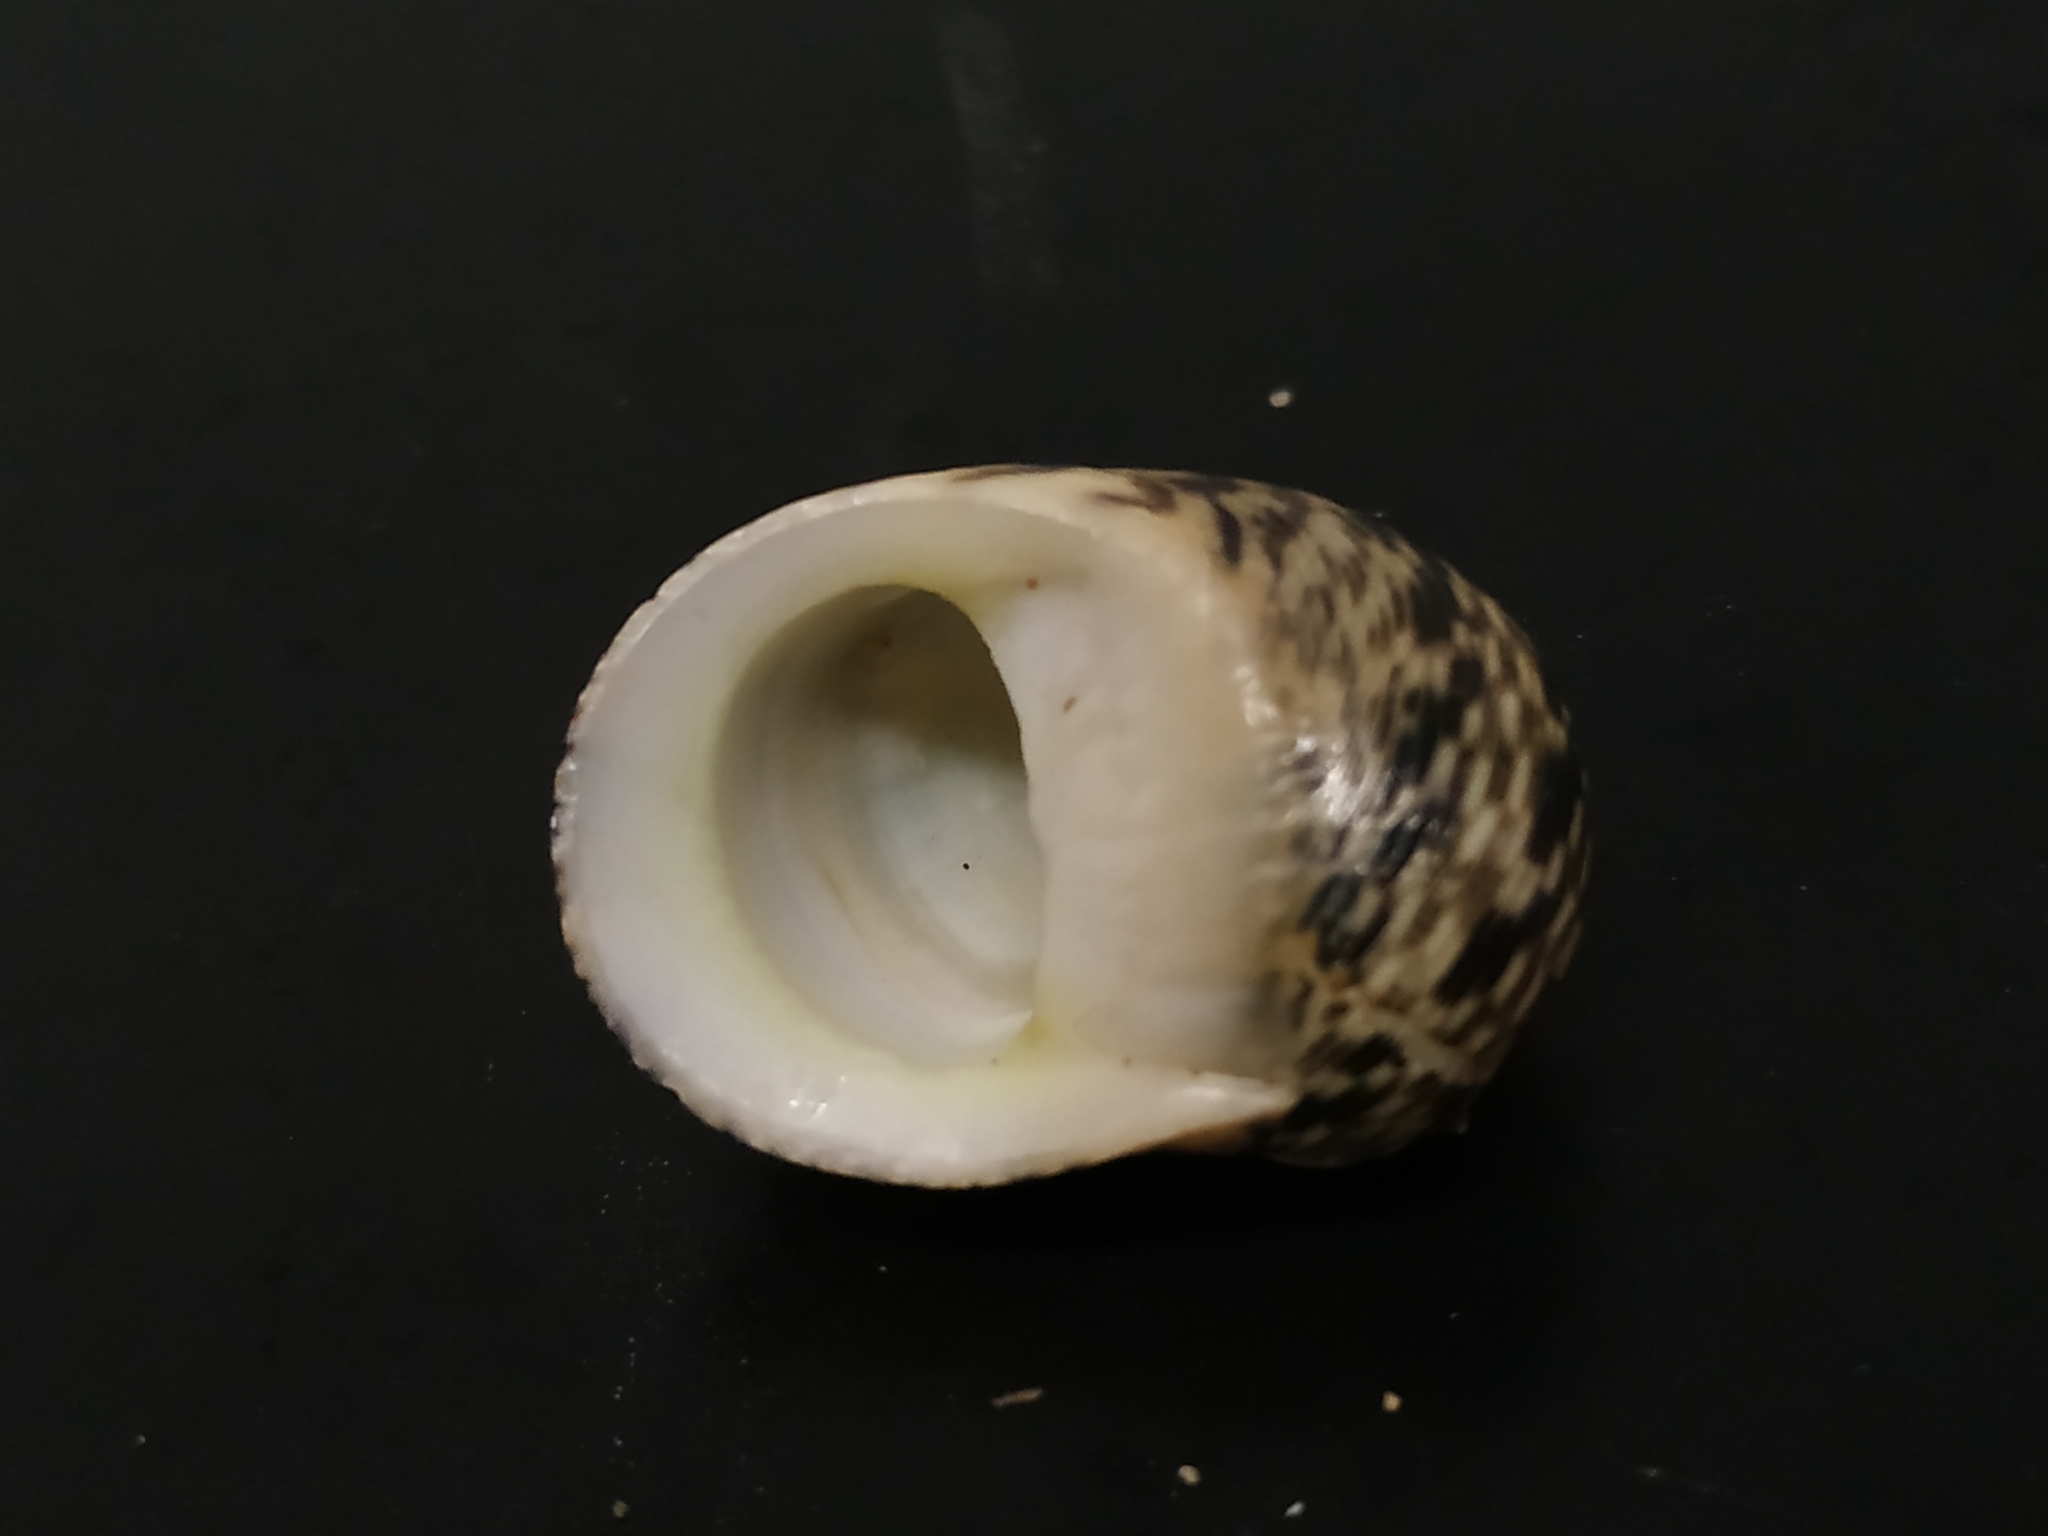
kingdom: Animalia
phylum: Mollusca
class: Gastropoda
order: Cycloneritida
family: Neritidae
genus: Nerita
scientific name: Nerita undata
